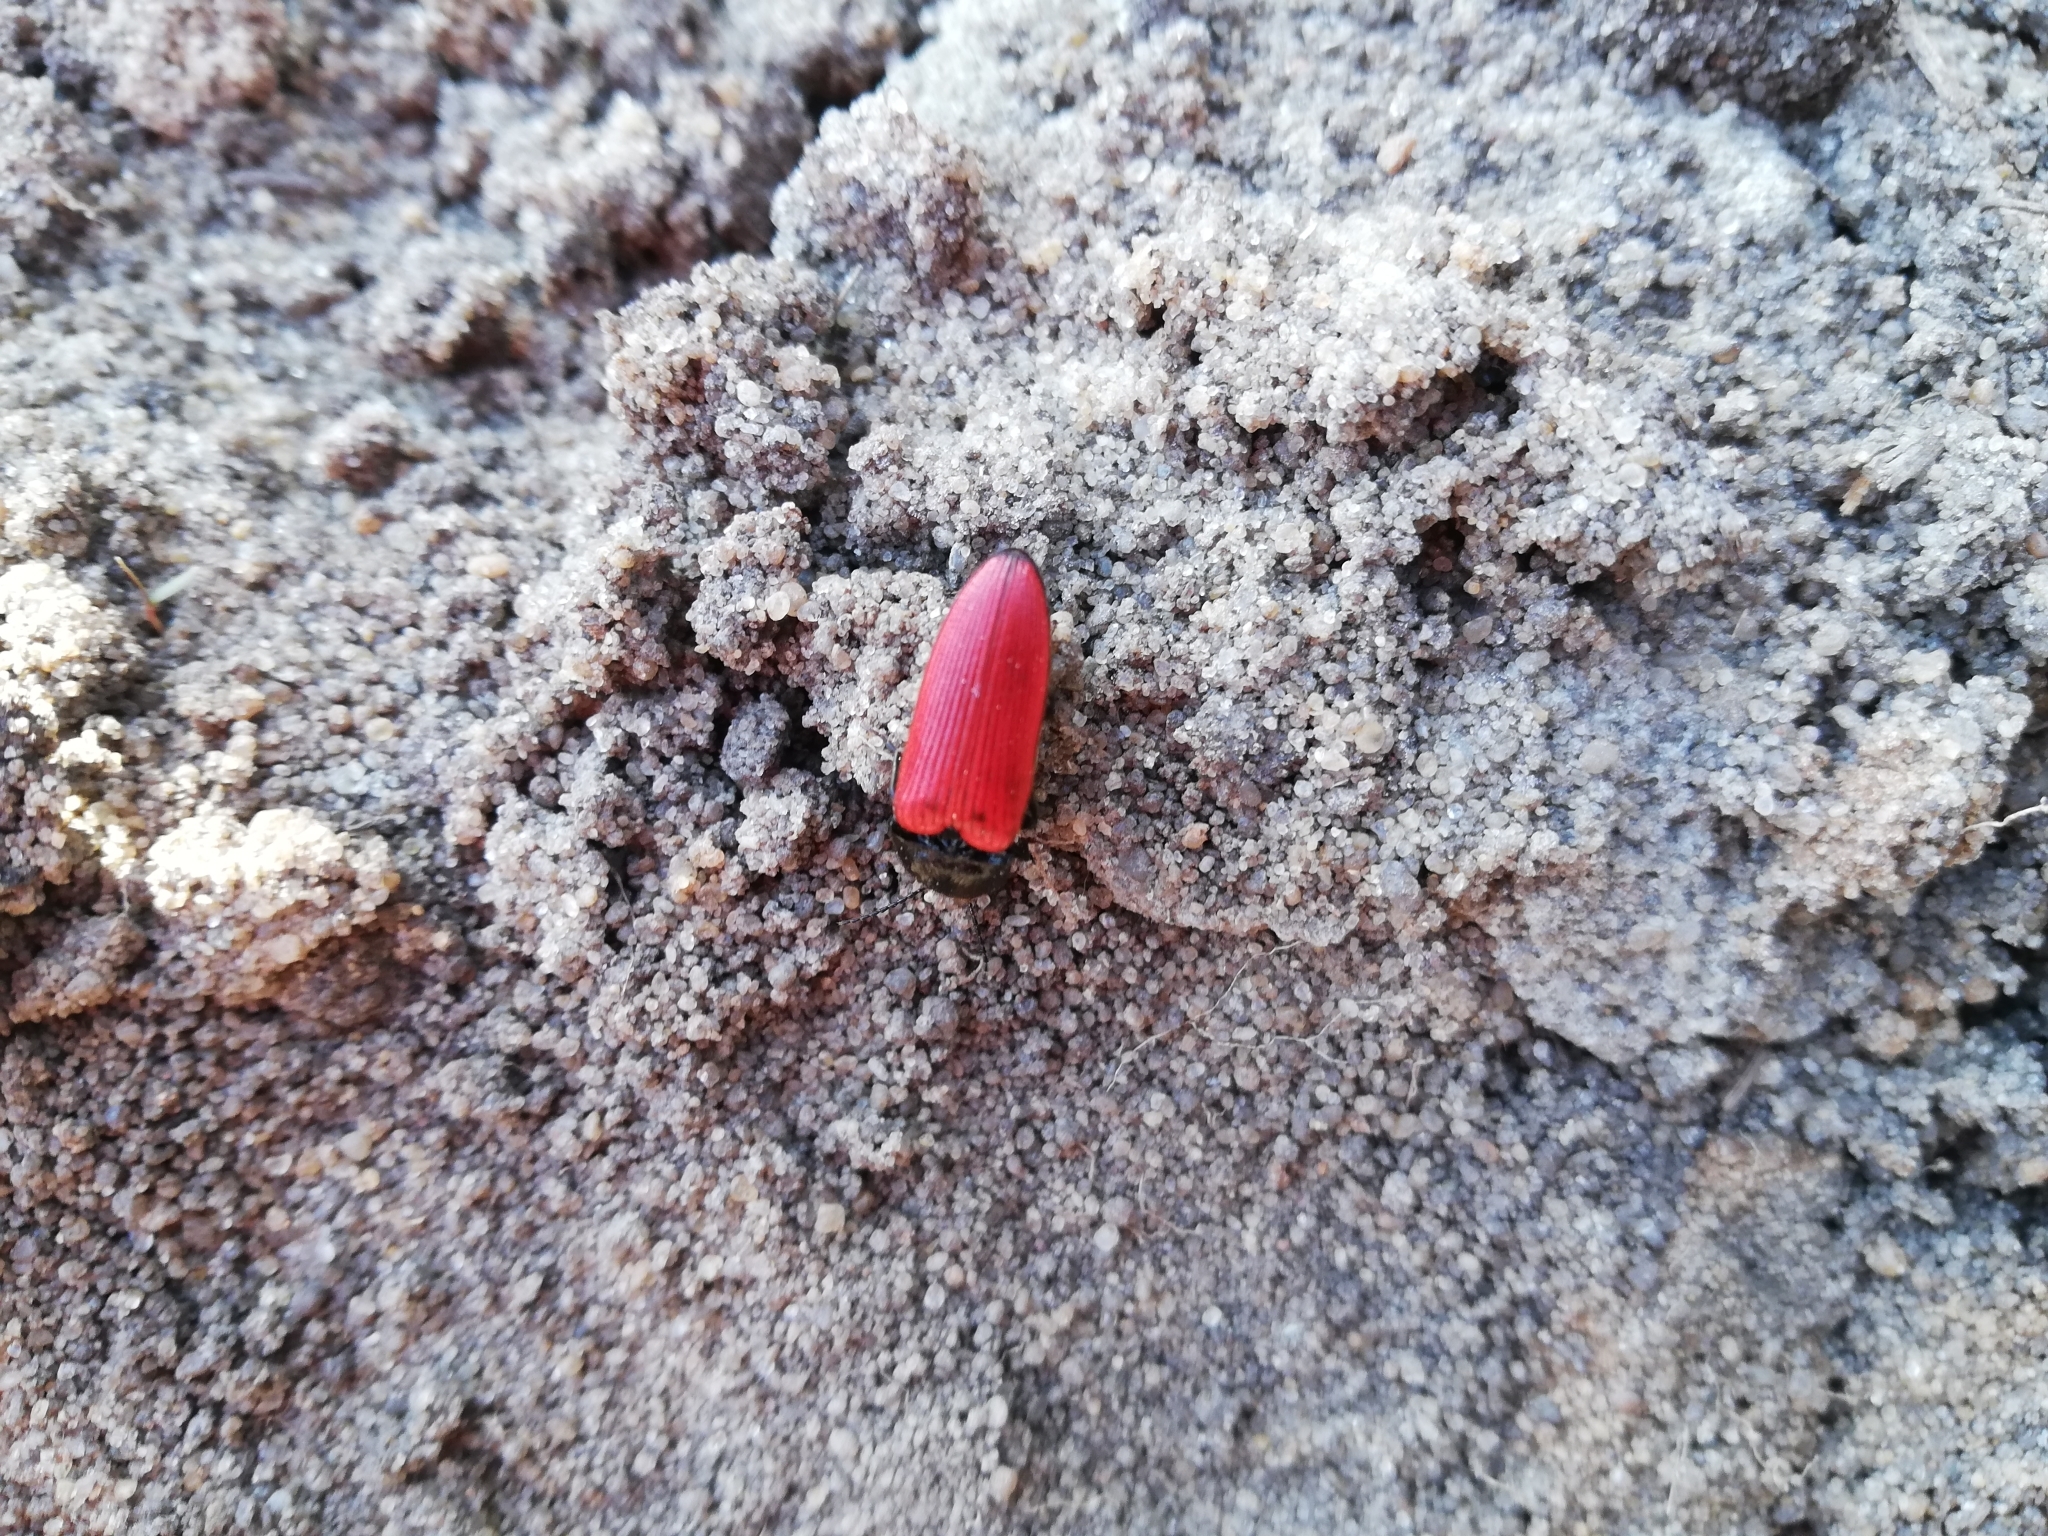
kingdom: Animalia
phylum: Arthropoda
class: Insecta
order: Coleoptera
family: Elateridae
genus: Ampedus
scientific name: Ampedus sanguineus
